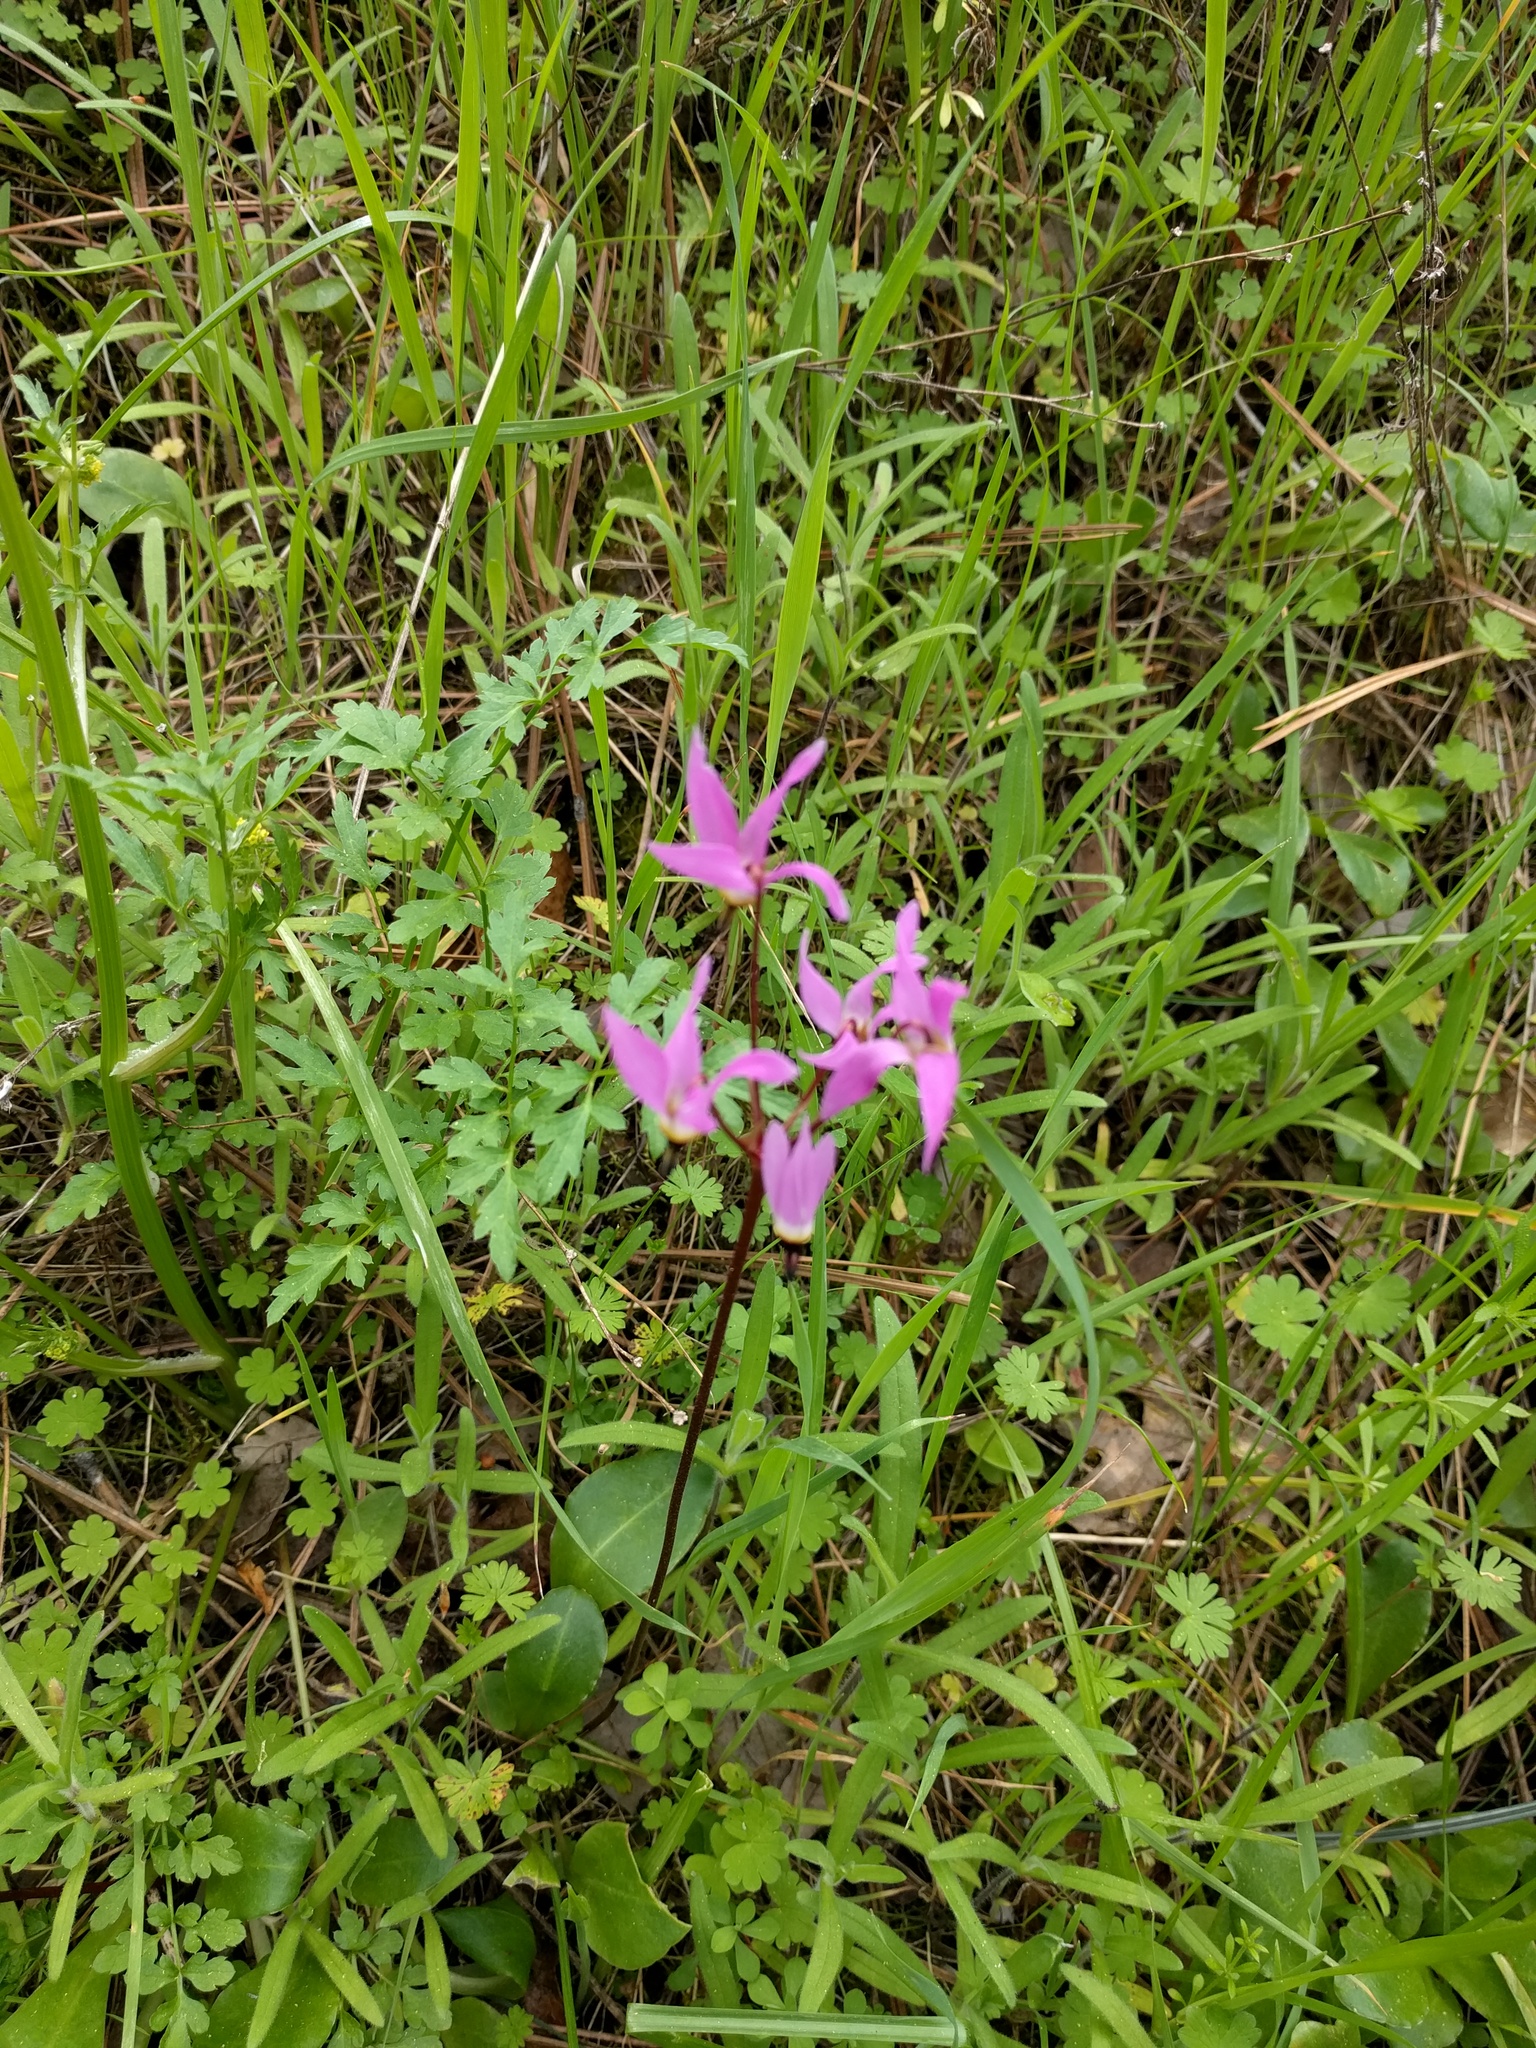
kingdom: Plantae
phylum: Tracheophyta
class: Magnoliopsida
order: Ericales
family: Primulaceae
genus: Dodecatheon
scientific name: Dodecatheon hendersonii
